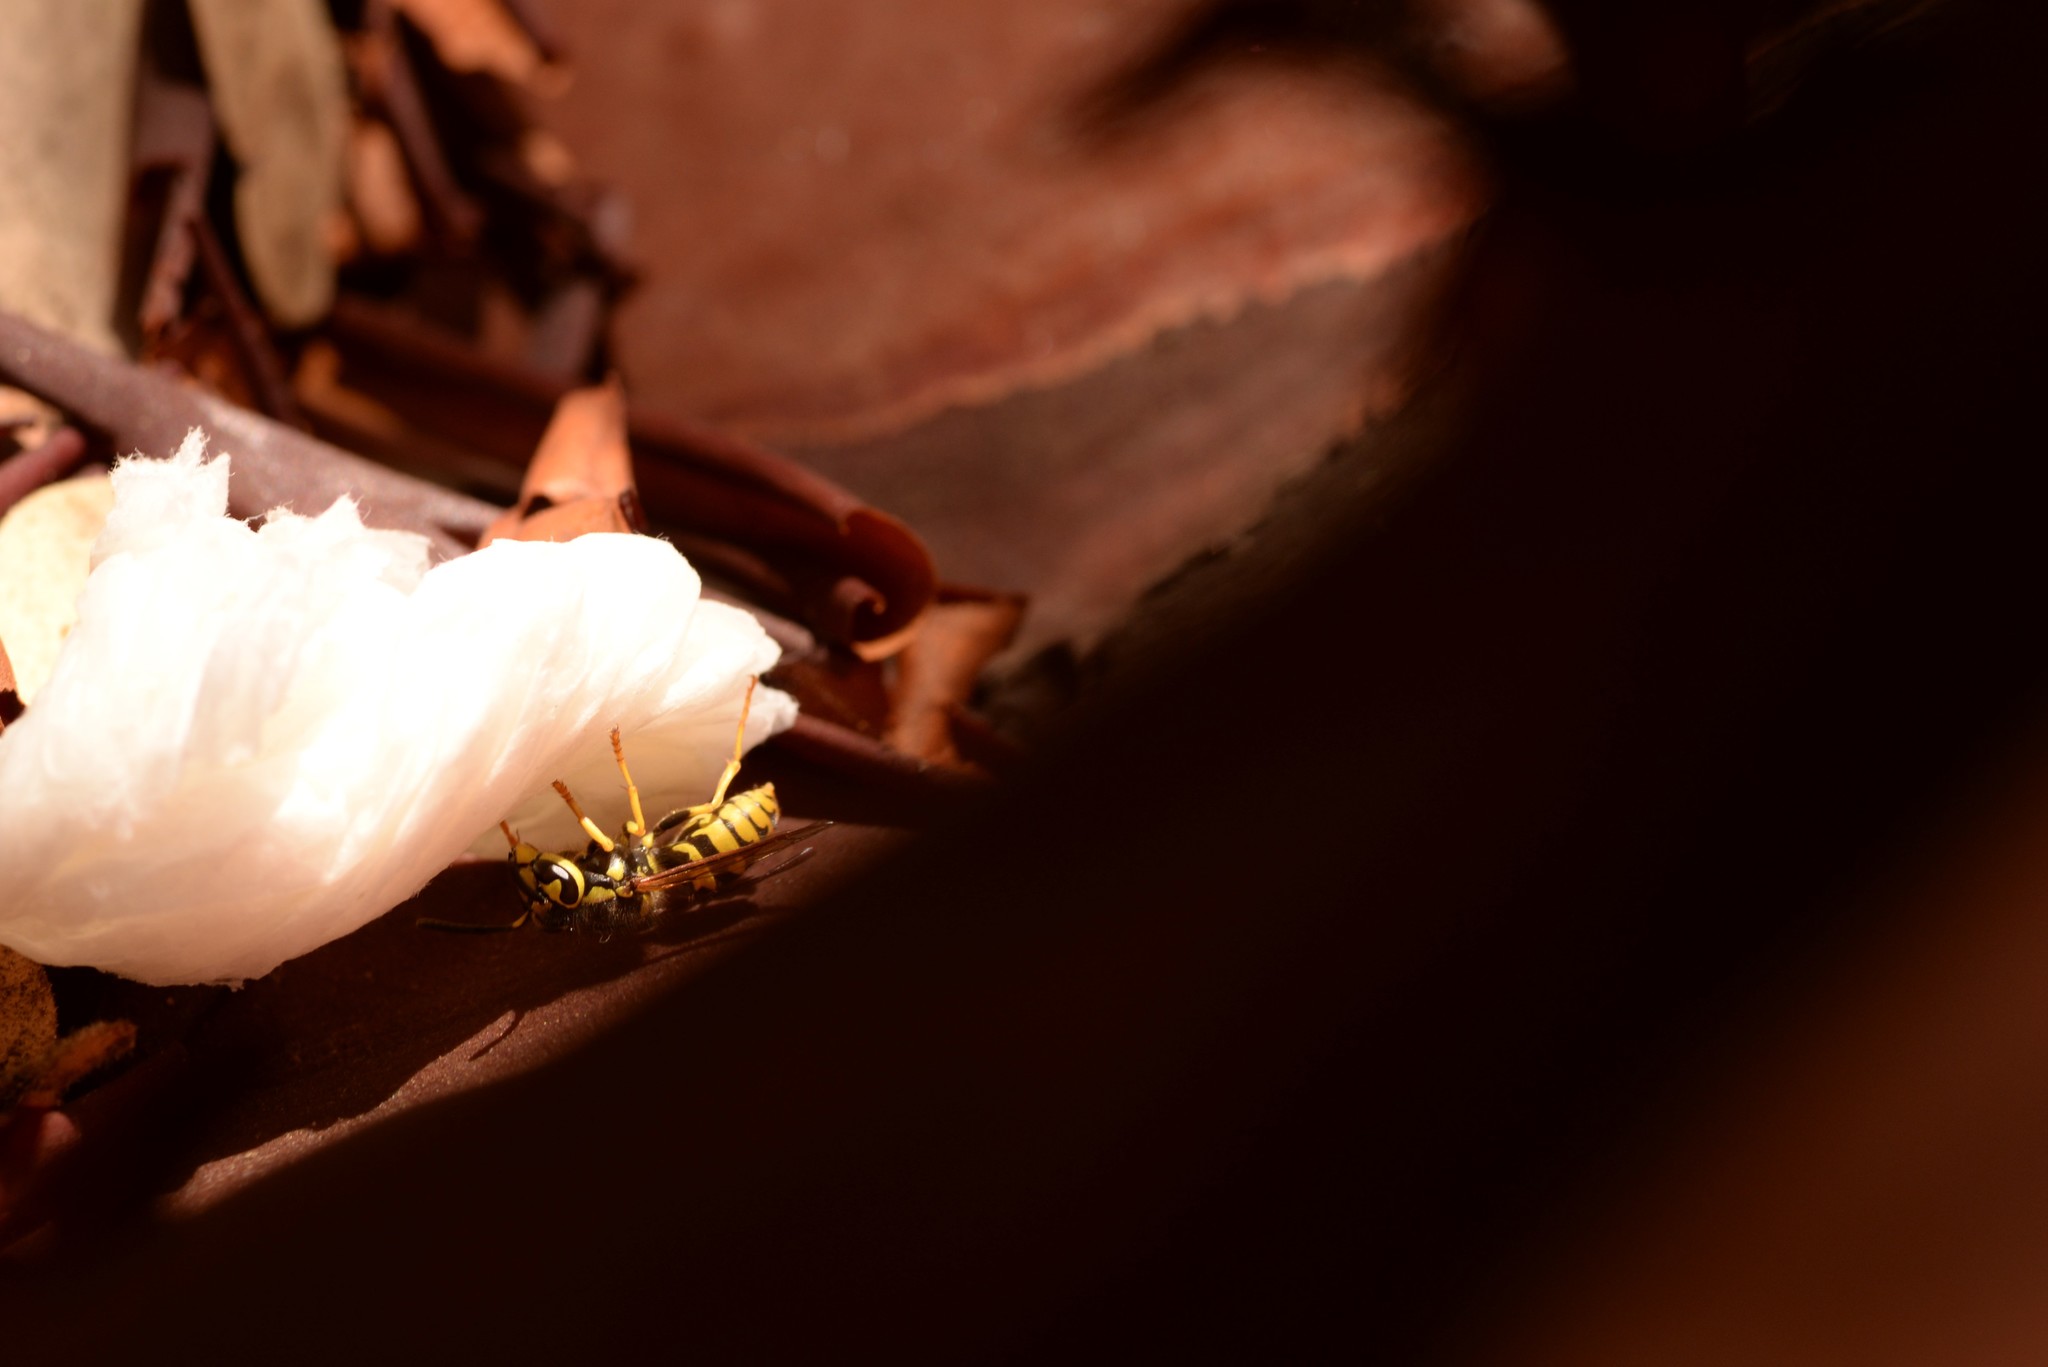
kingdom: Animalia
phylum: Arthropoda
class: Insecta
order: Hymenoptera
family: Vespidae
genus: Vespula
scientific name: Vespula pensylvanica
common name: Western yellowjacket
